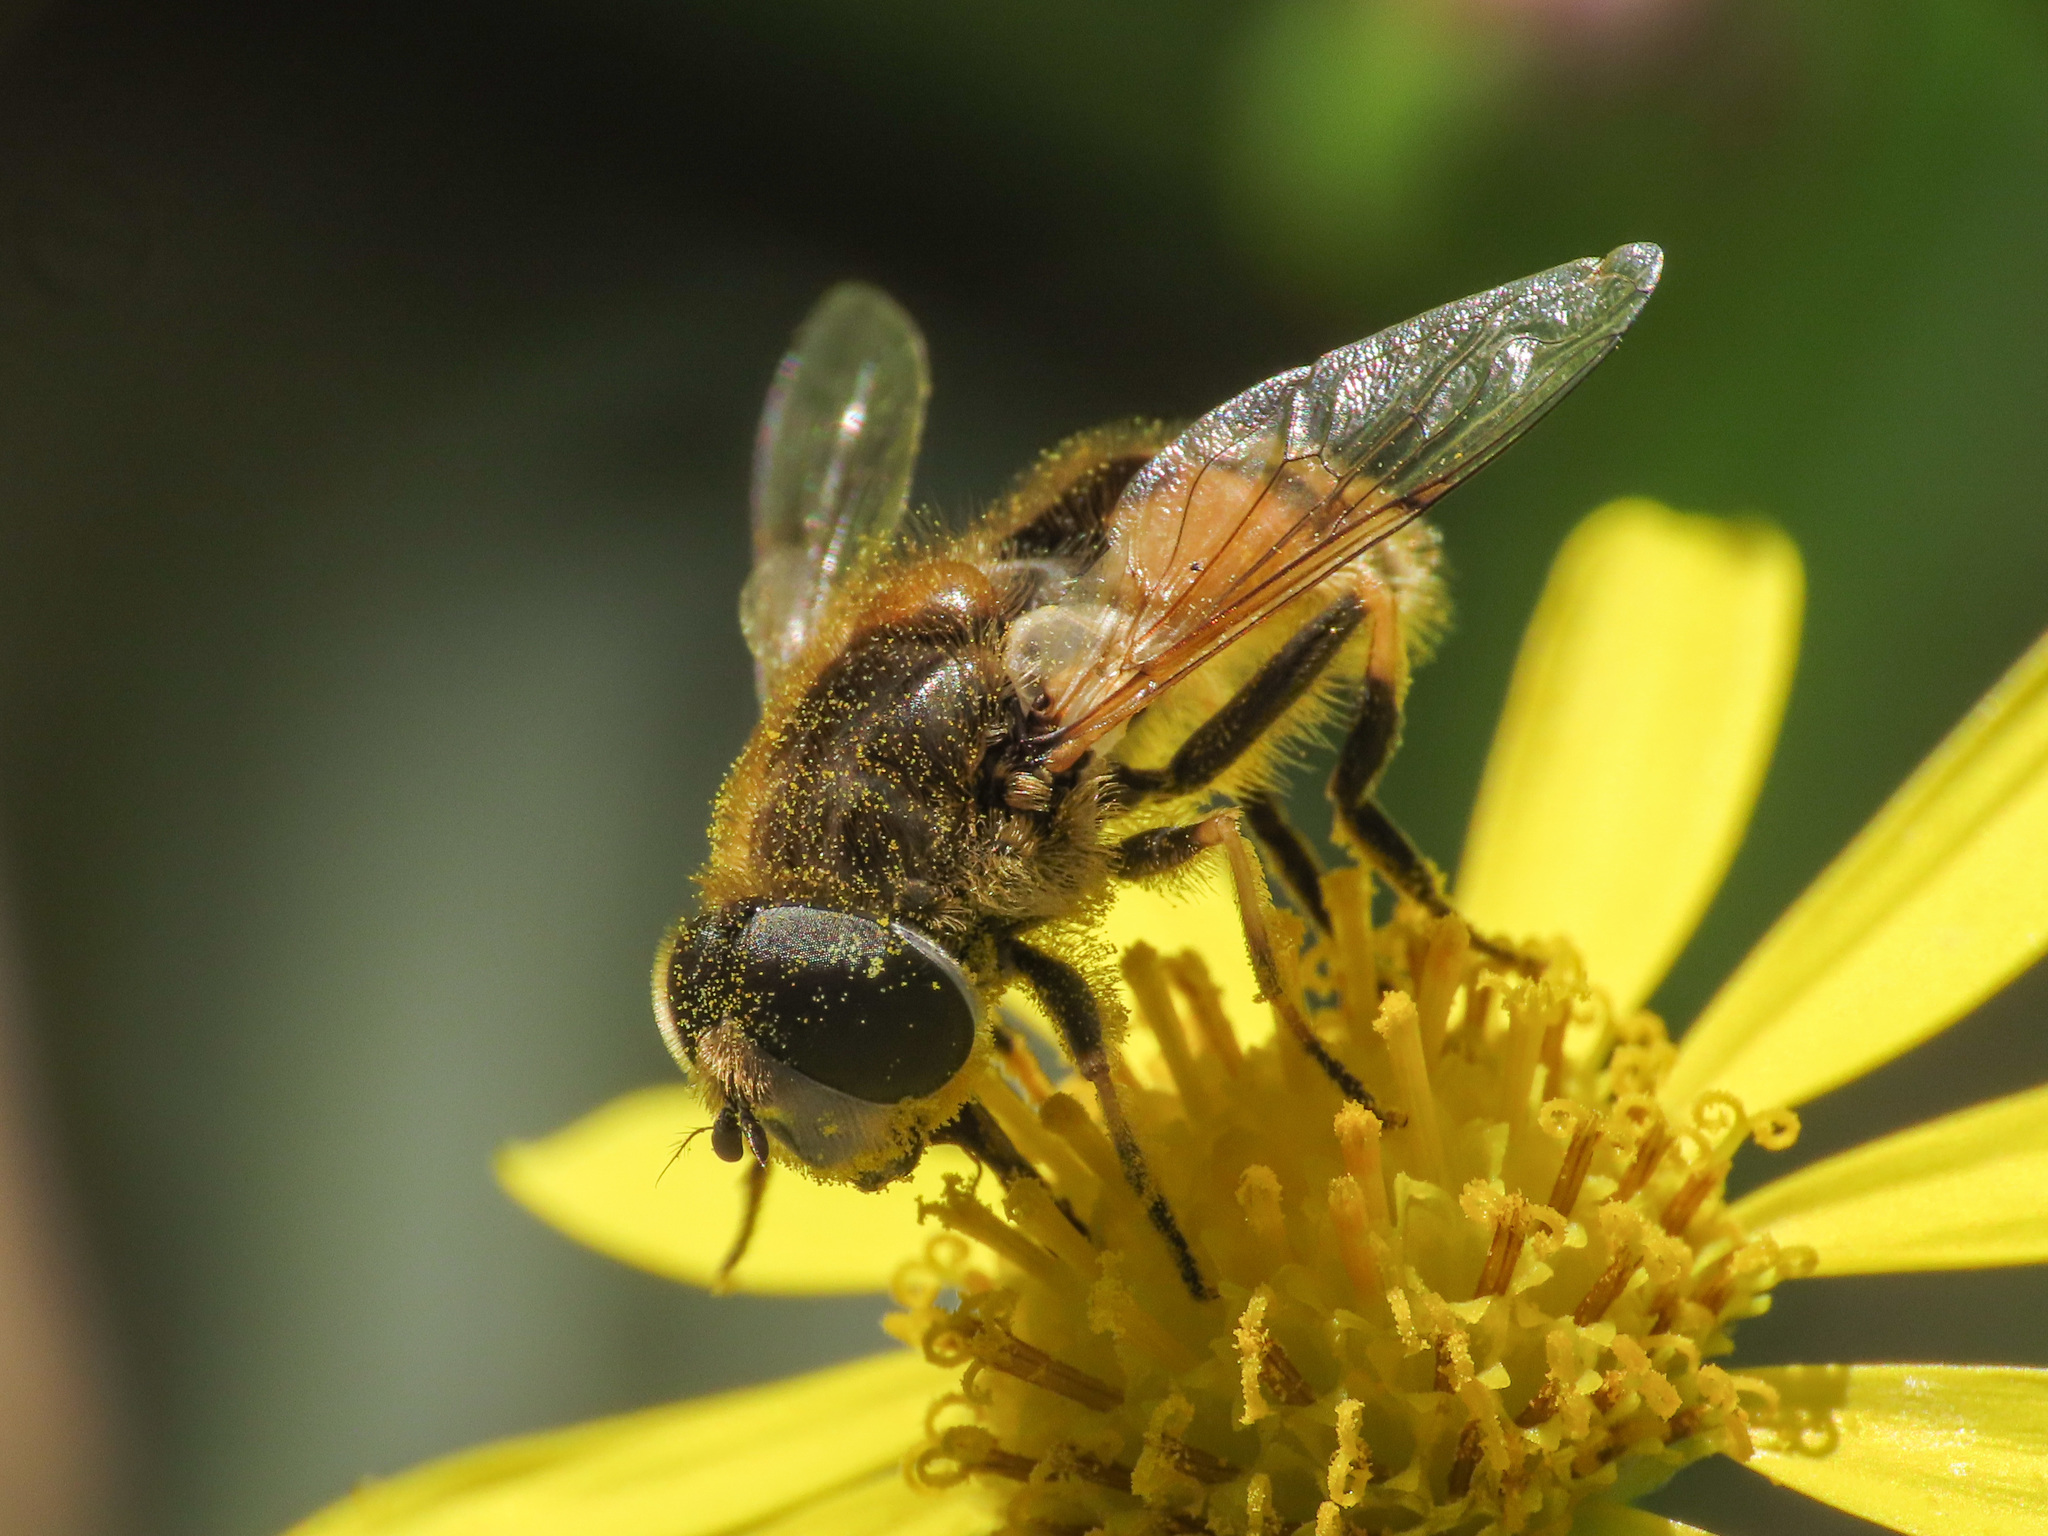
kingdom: Animalia
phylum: Arthropoda
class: Insecta
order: Diptera
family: Syrphidae
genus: Eristalis
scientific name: Eristalis arbustorum
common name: Hover fly
